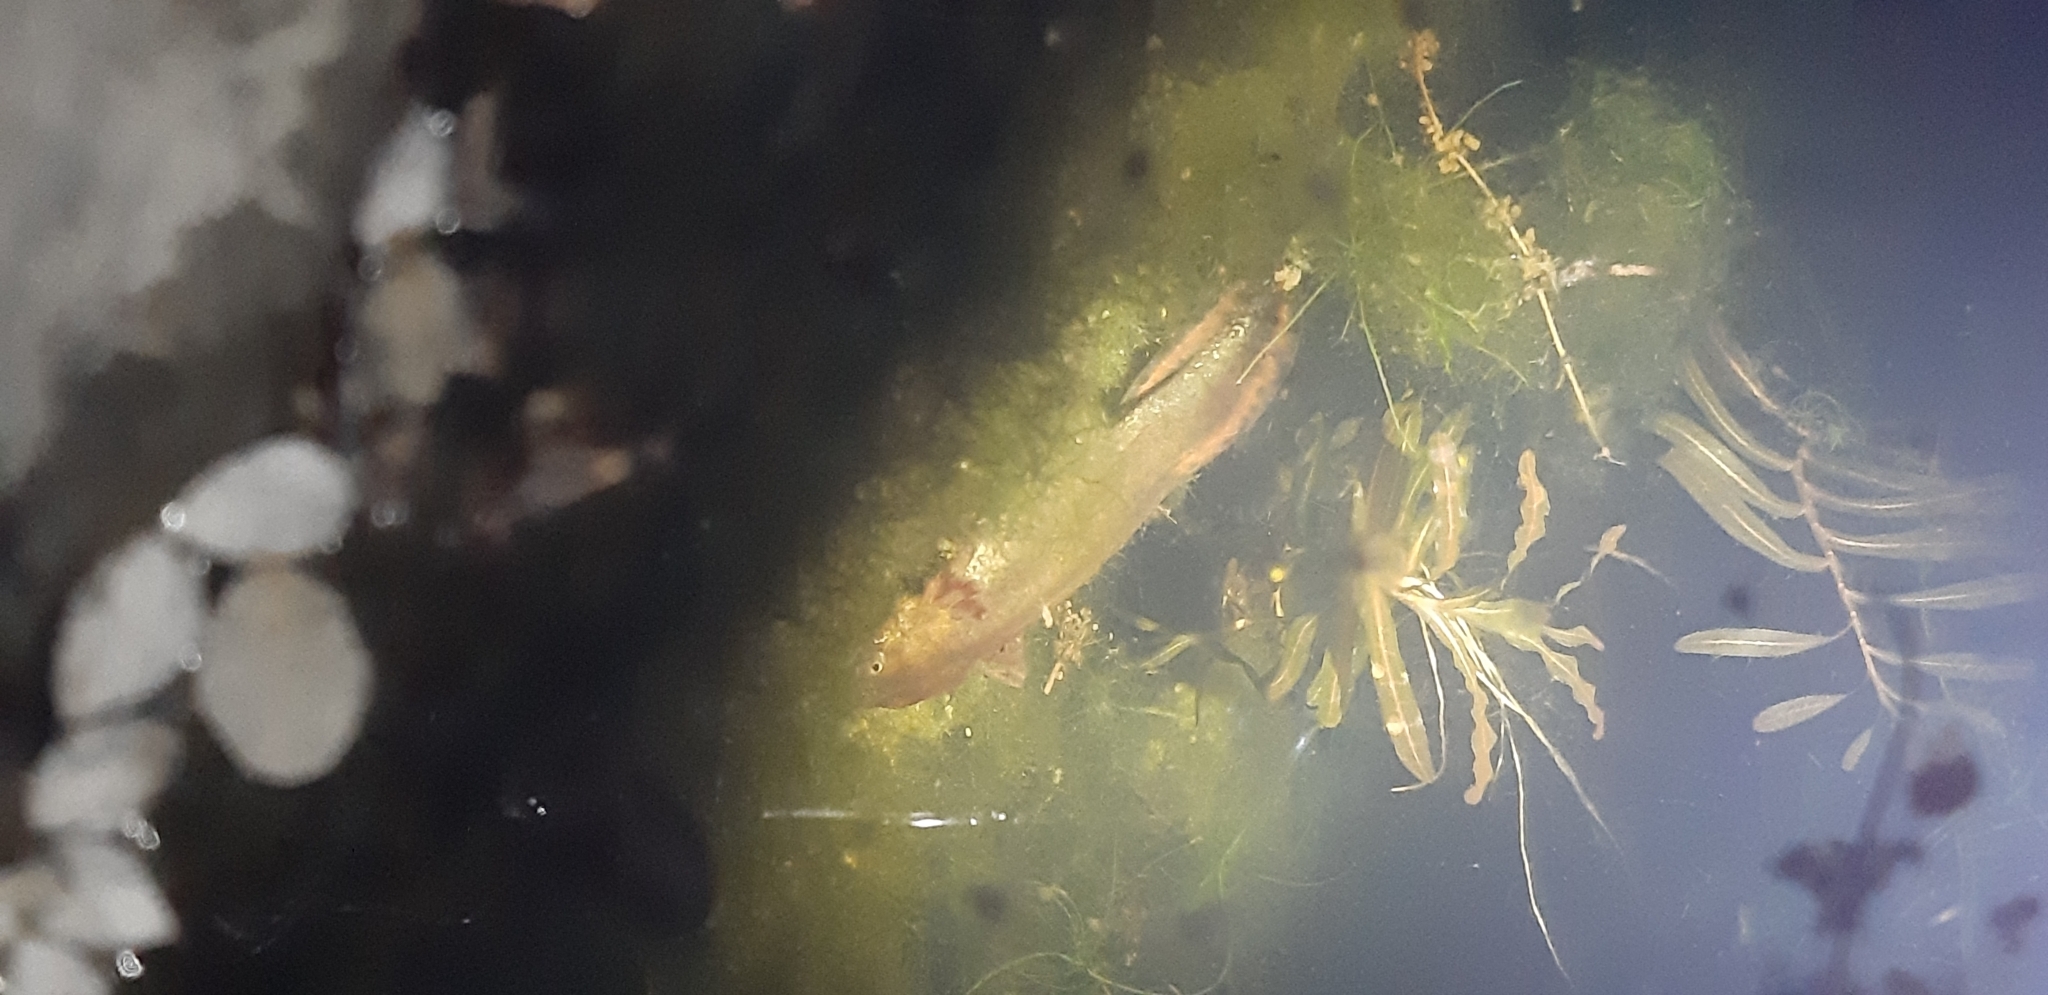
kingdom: Animalia
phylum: Chordata
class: Amphibia
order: Caudata
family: Salamandridae
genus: Triturus
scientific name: Triturus carnifex
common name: Italian crested newt
